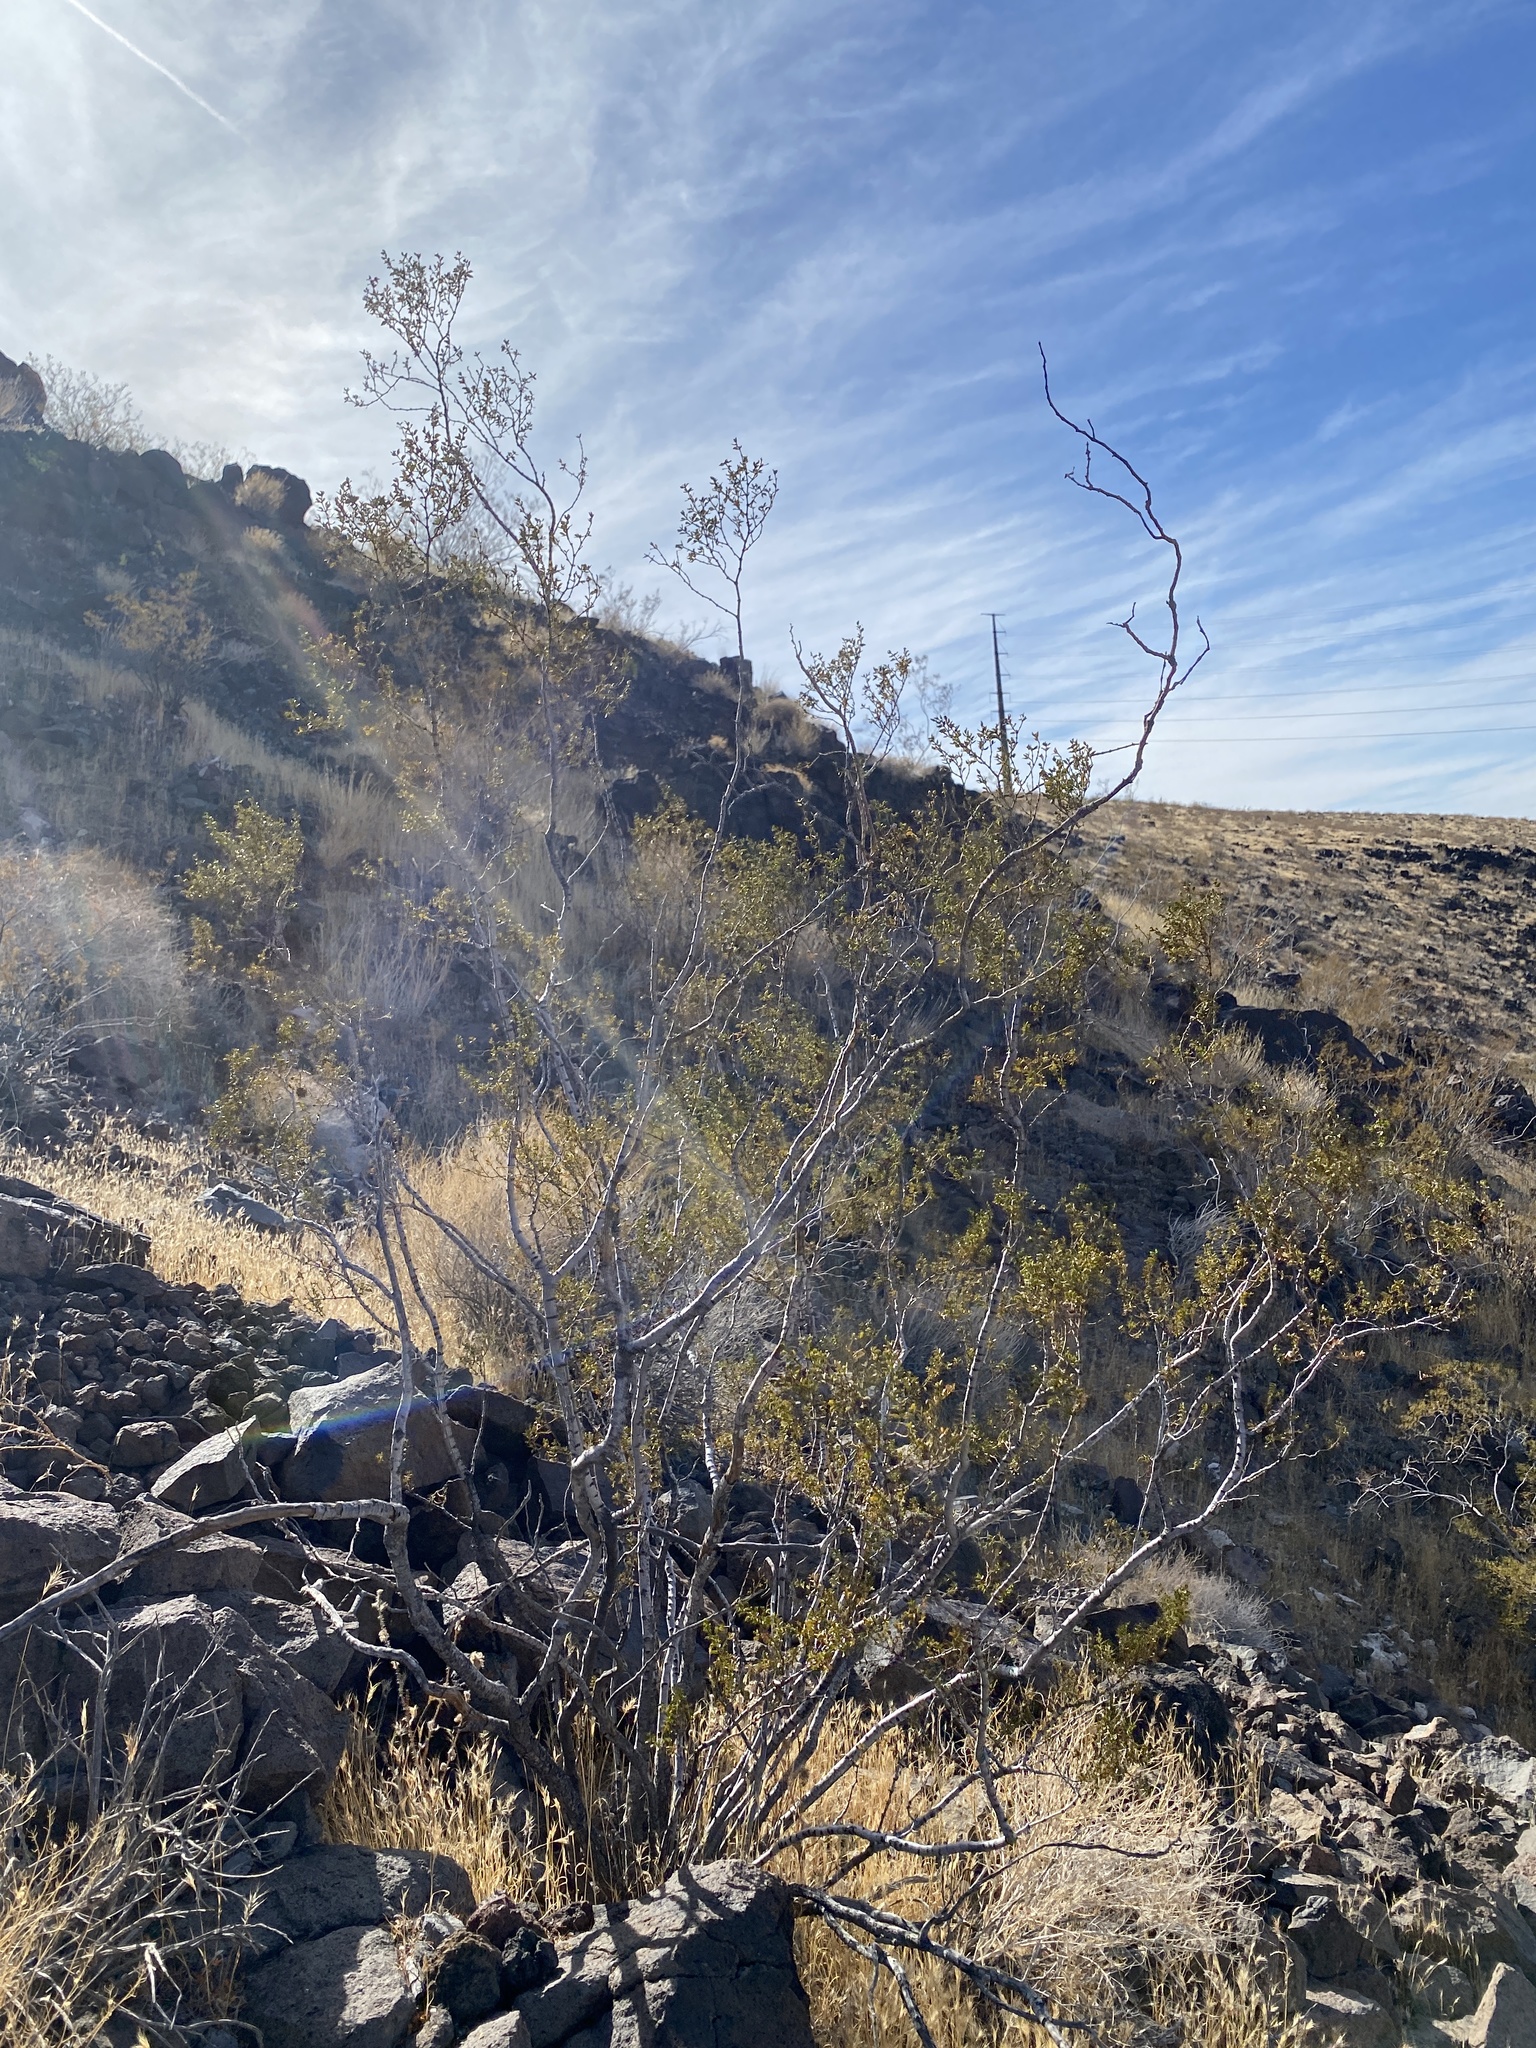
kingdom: Plantae
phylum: Tracheophyta
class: Magnoliopsida
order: Zygophyllales
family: Zygophyllaceae
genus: Larrea
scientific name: Larrea tridentata
